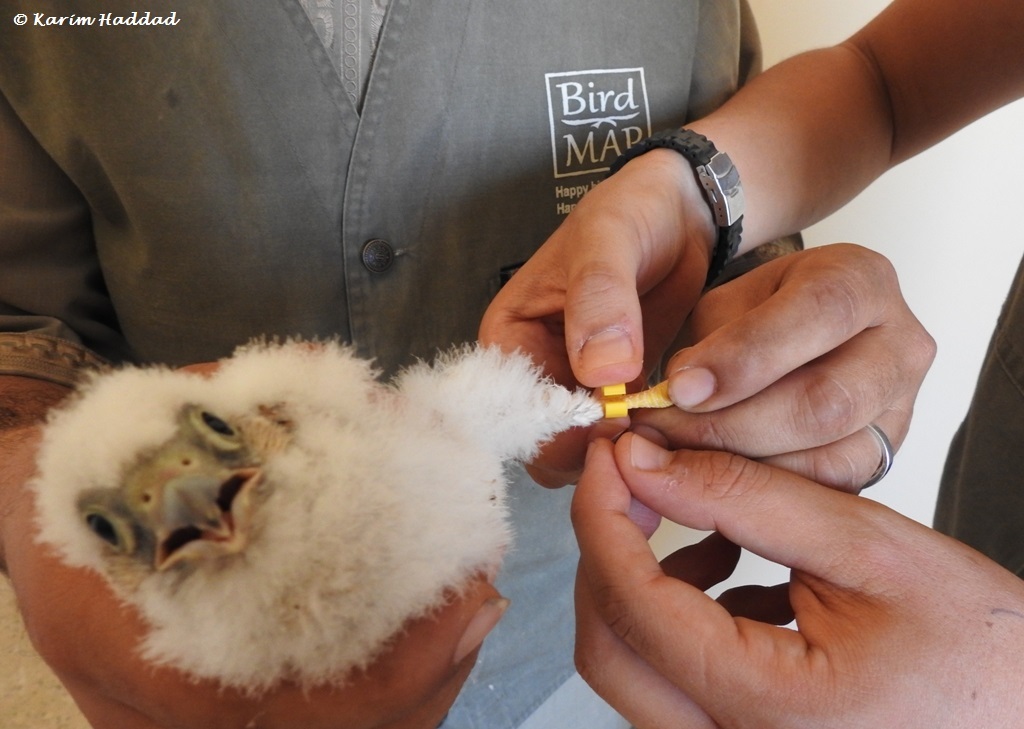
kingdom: Animalia
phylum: Chordata
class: Aves
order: Falconiformes
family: Falconidae
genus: Falco
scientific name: Falco naumanni
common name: Lesser kestrel
